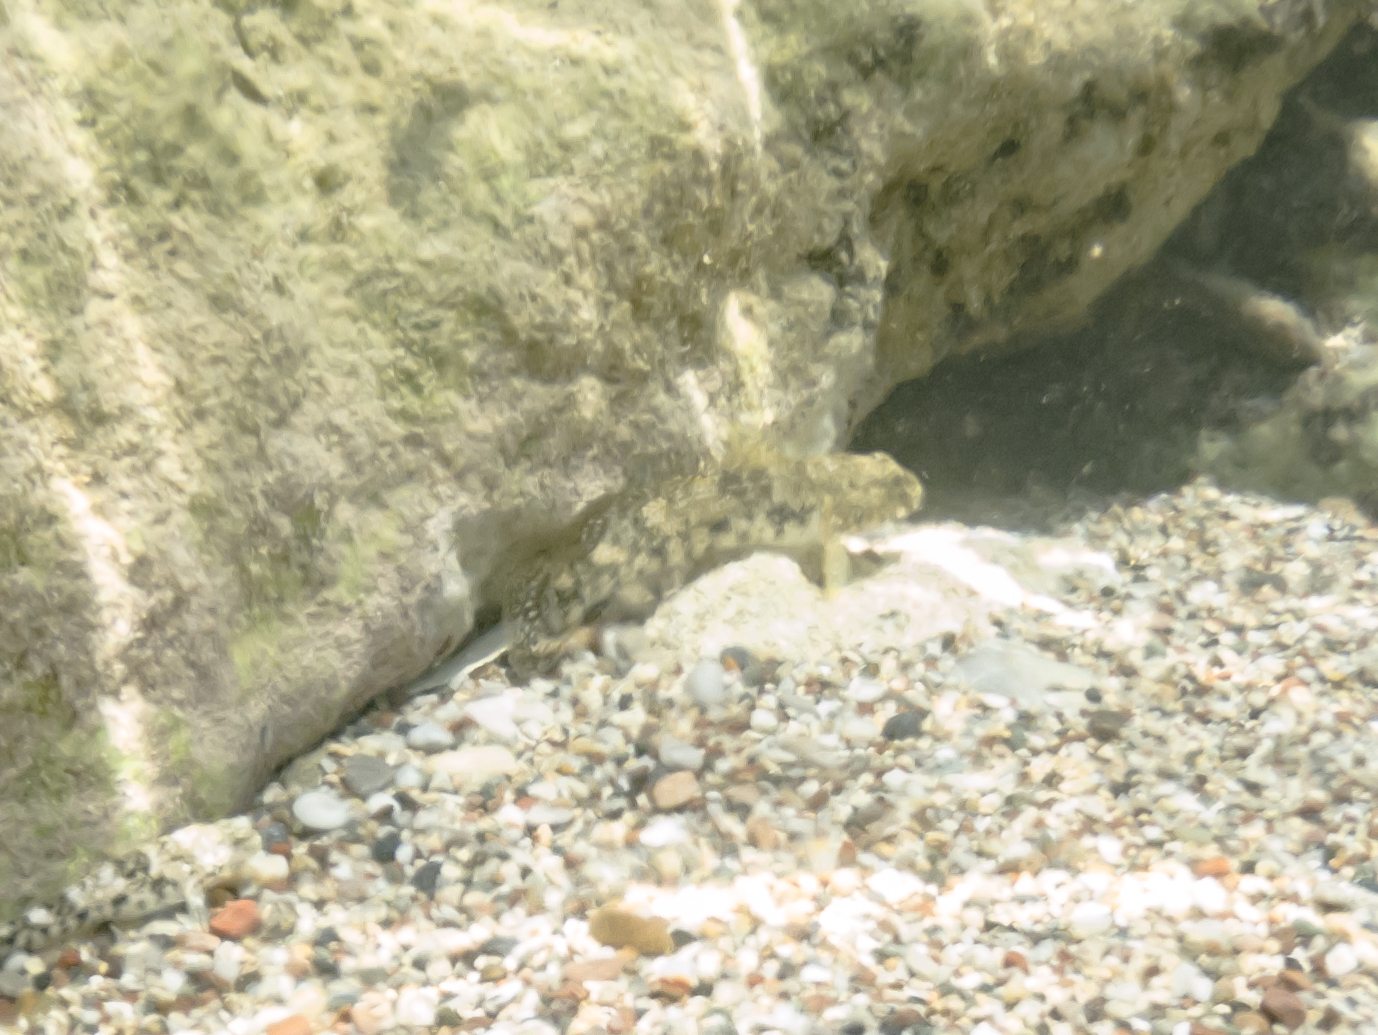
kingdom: Animalia
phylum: Chordata
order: Perciformes
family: Gobiidae
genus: Gobius
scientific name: Gobius cobitis
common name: Giant goby
